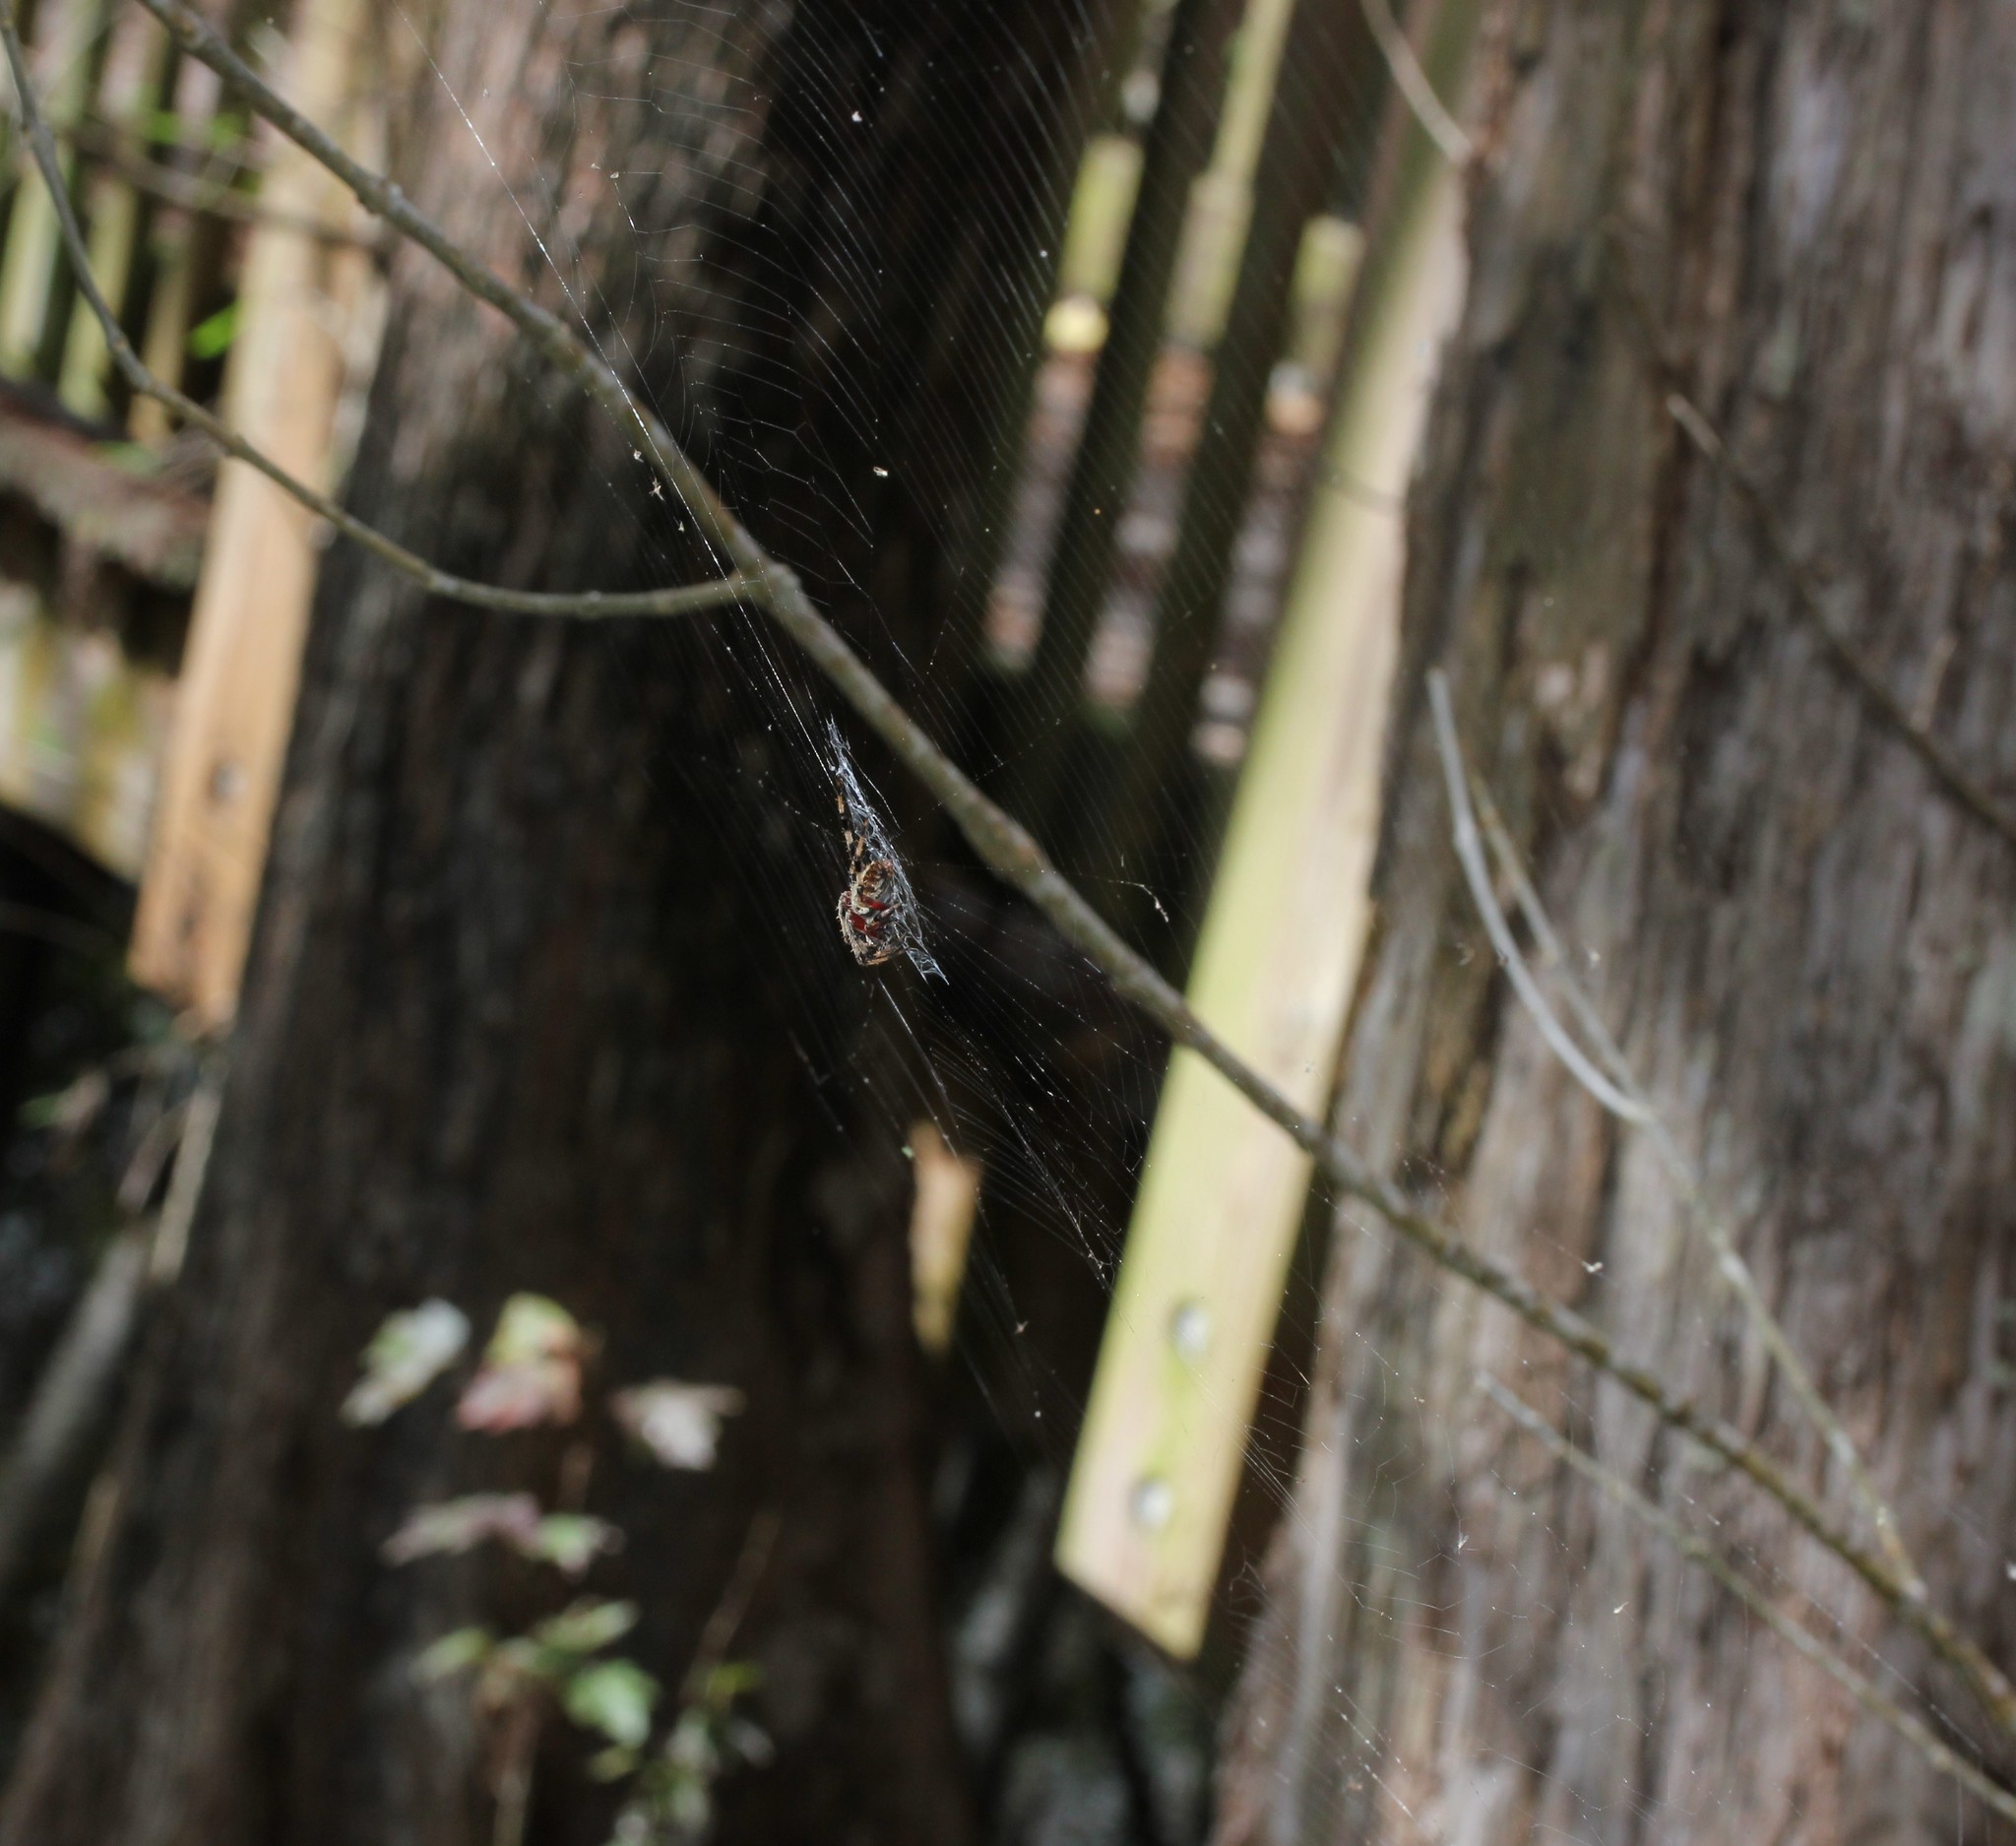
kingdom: Animalia
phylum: Arthropoda
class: Arachnida
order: Araneae
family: Araneidae
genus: Neoscona
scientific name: Neoscona domiciliorum
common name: Red-femured spotted orbweaver
